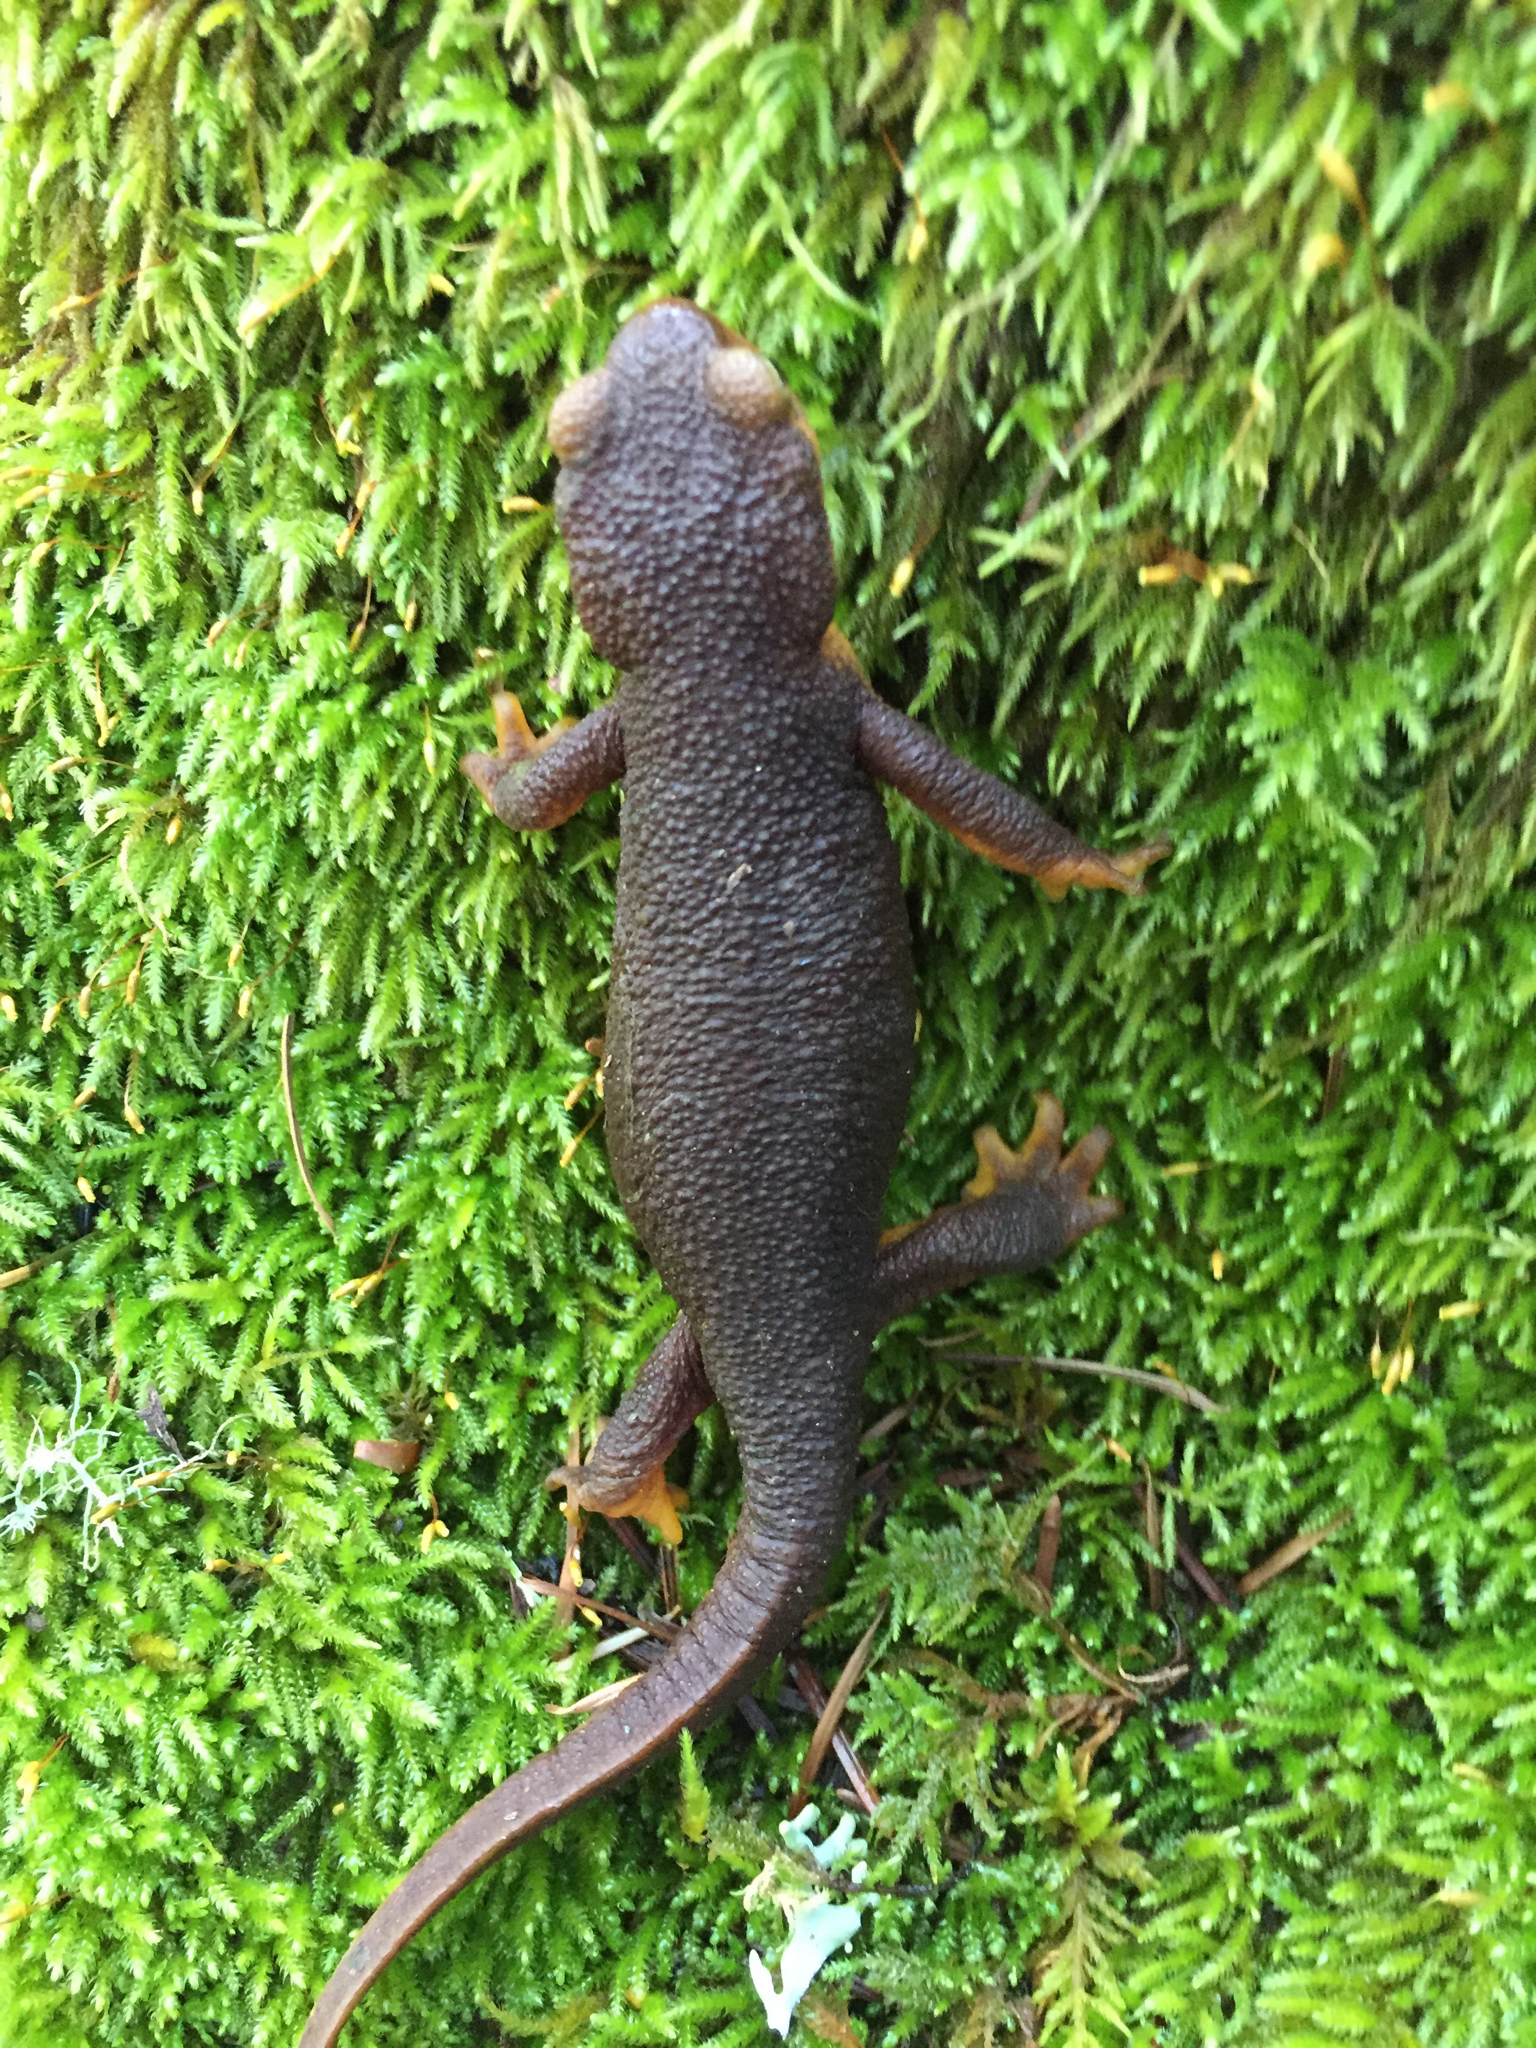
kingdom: Animalia
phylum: Chordata
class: Amphibia
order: Caudata
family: Salamandridae
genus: Taricha
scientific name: Taricha torosa
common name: California newt
